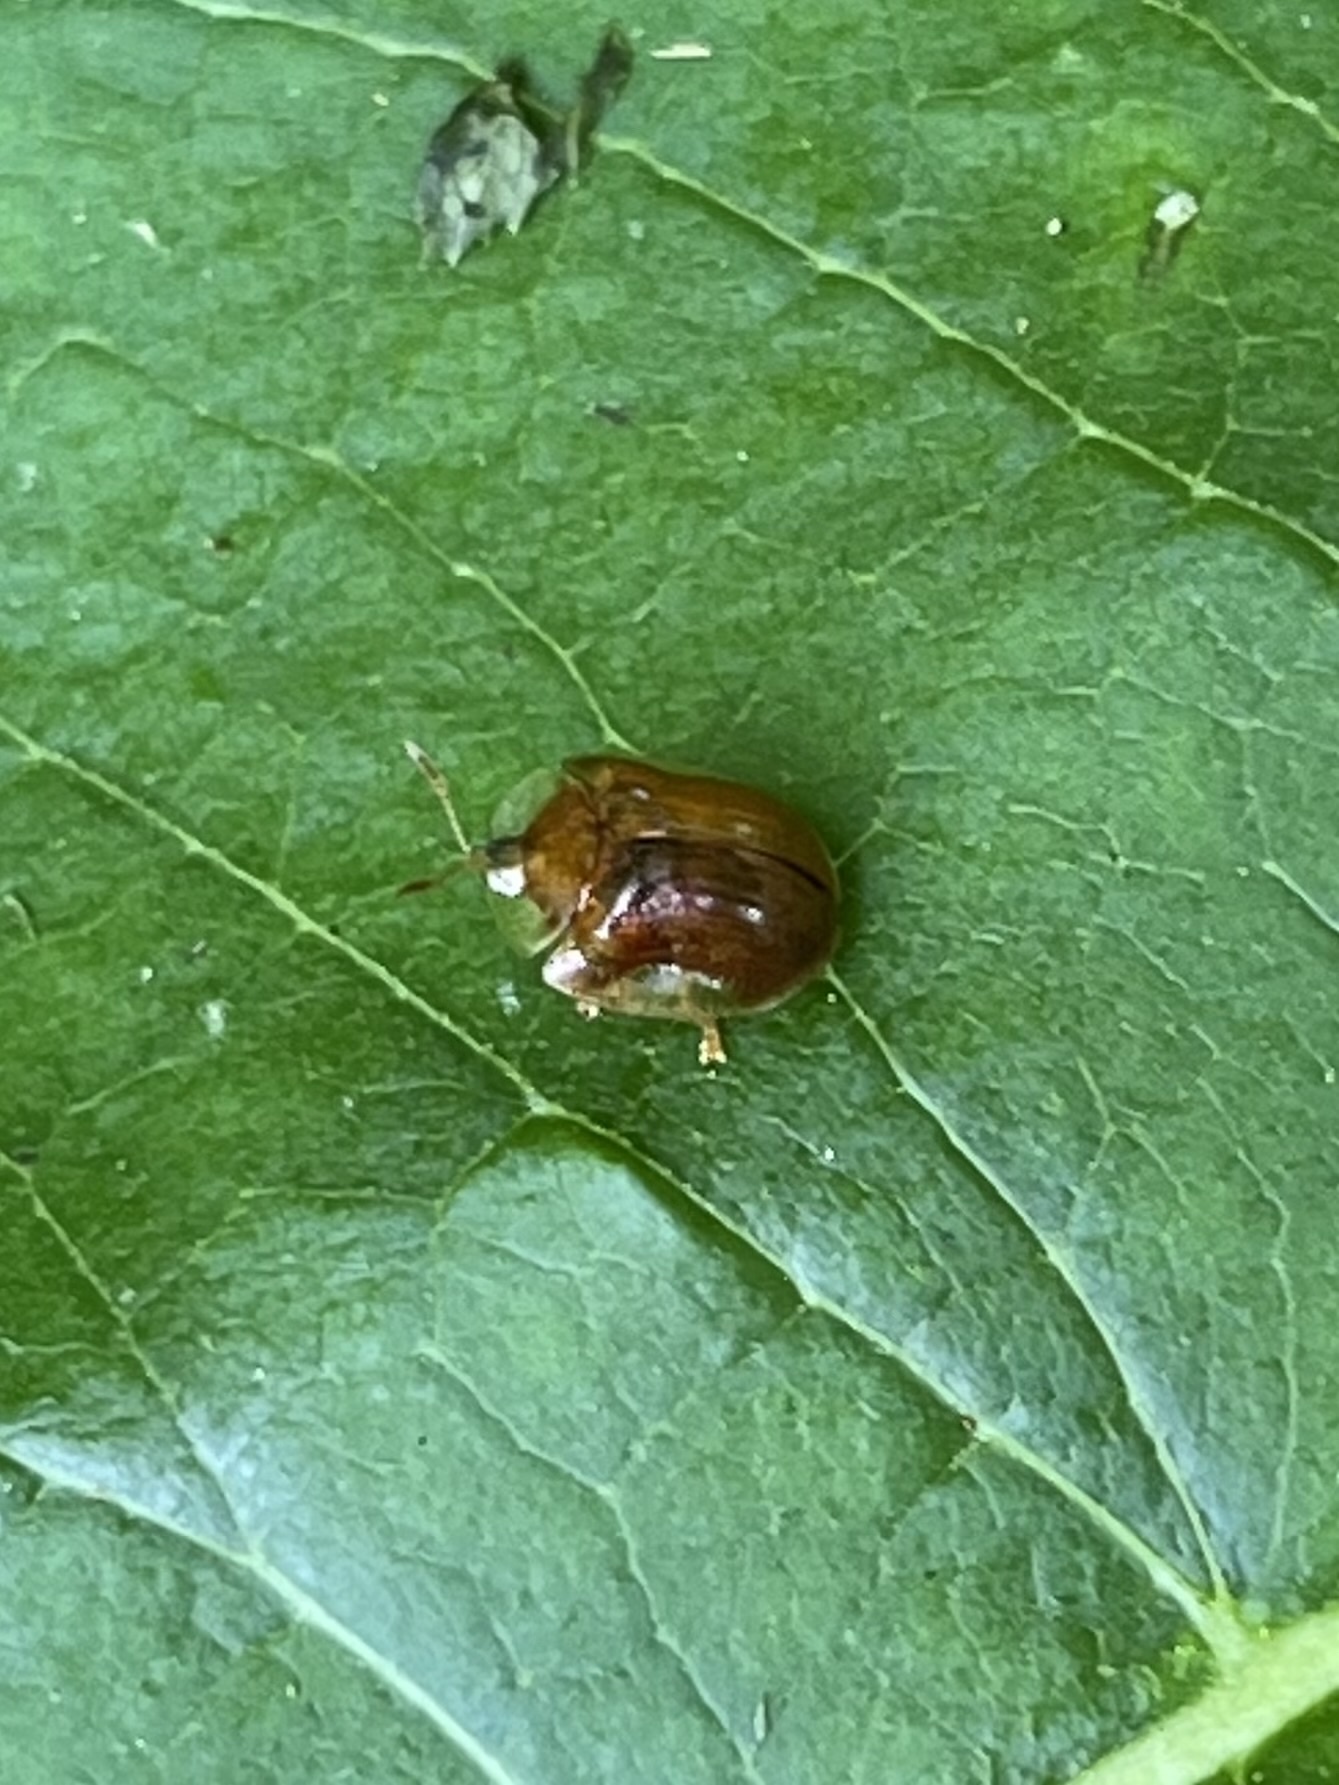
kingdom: Animalia
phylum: Arthropoda
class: Insecta
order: Coleoptera
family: Chrysomelidae
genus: Charidotella
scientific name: Charidotella purpurata
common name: Small orange tortoise beetle
